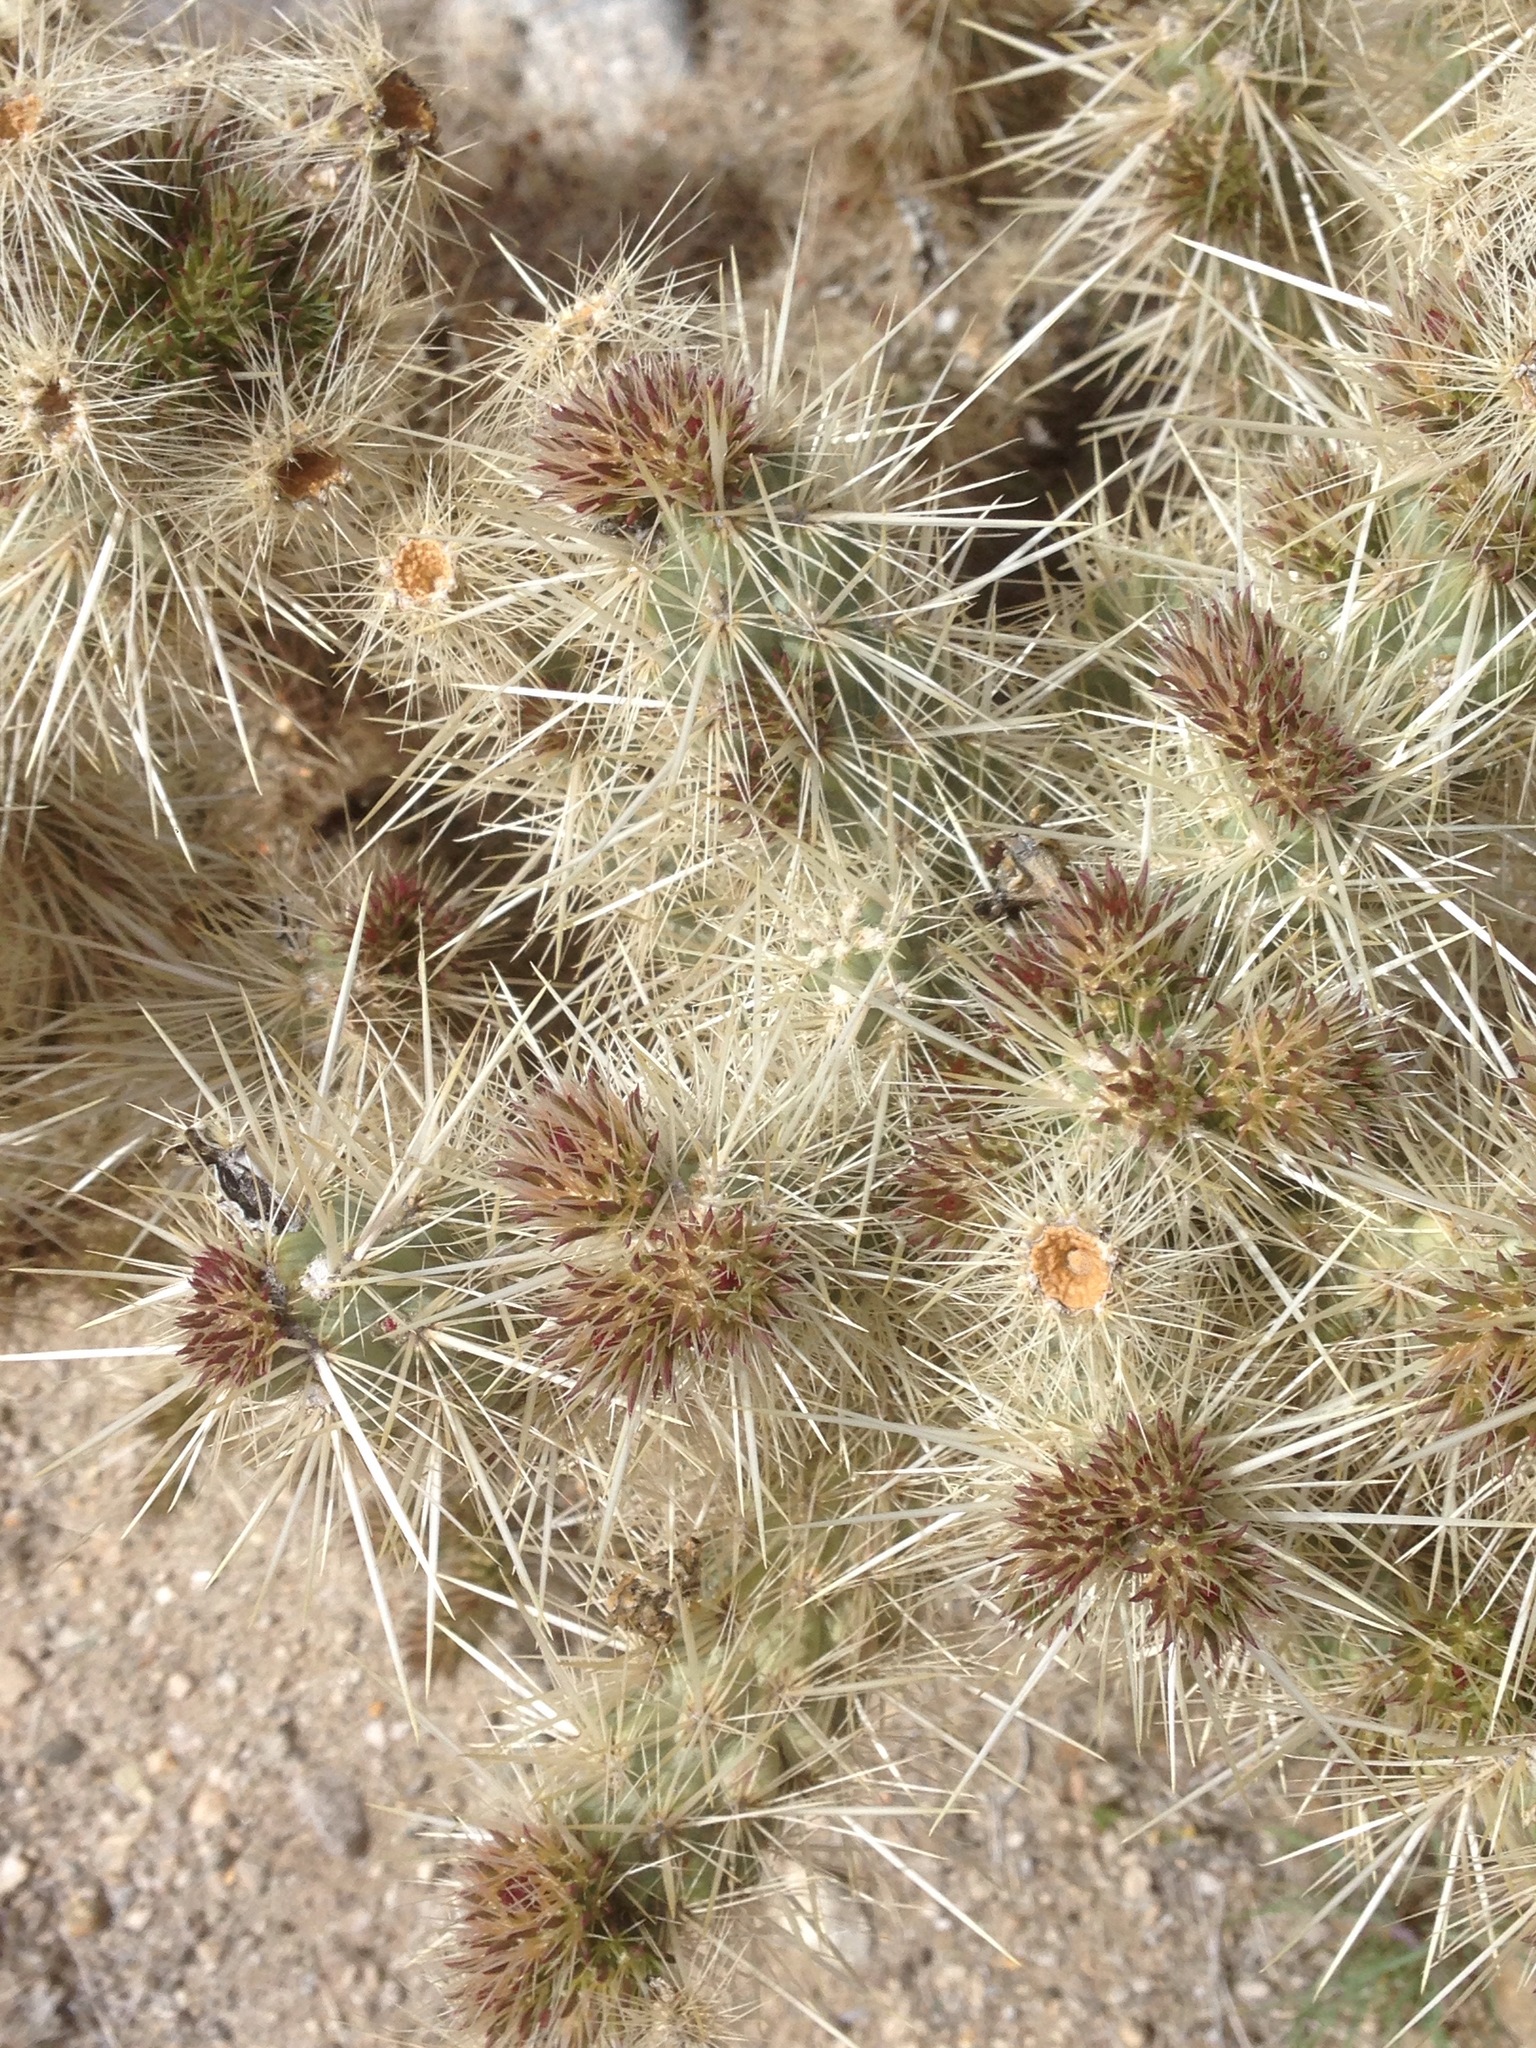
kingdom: Plantae
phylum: Tracheophyta
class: Magnoliopsida
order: Caryophyllales
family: Cactaceae
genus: Cylindropuntia
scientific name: Cylindropuntia chuckwallensis
